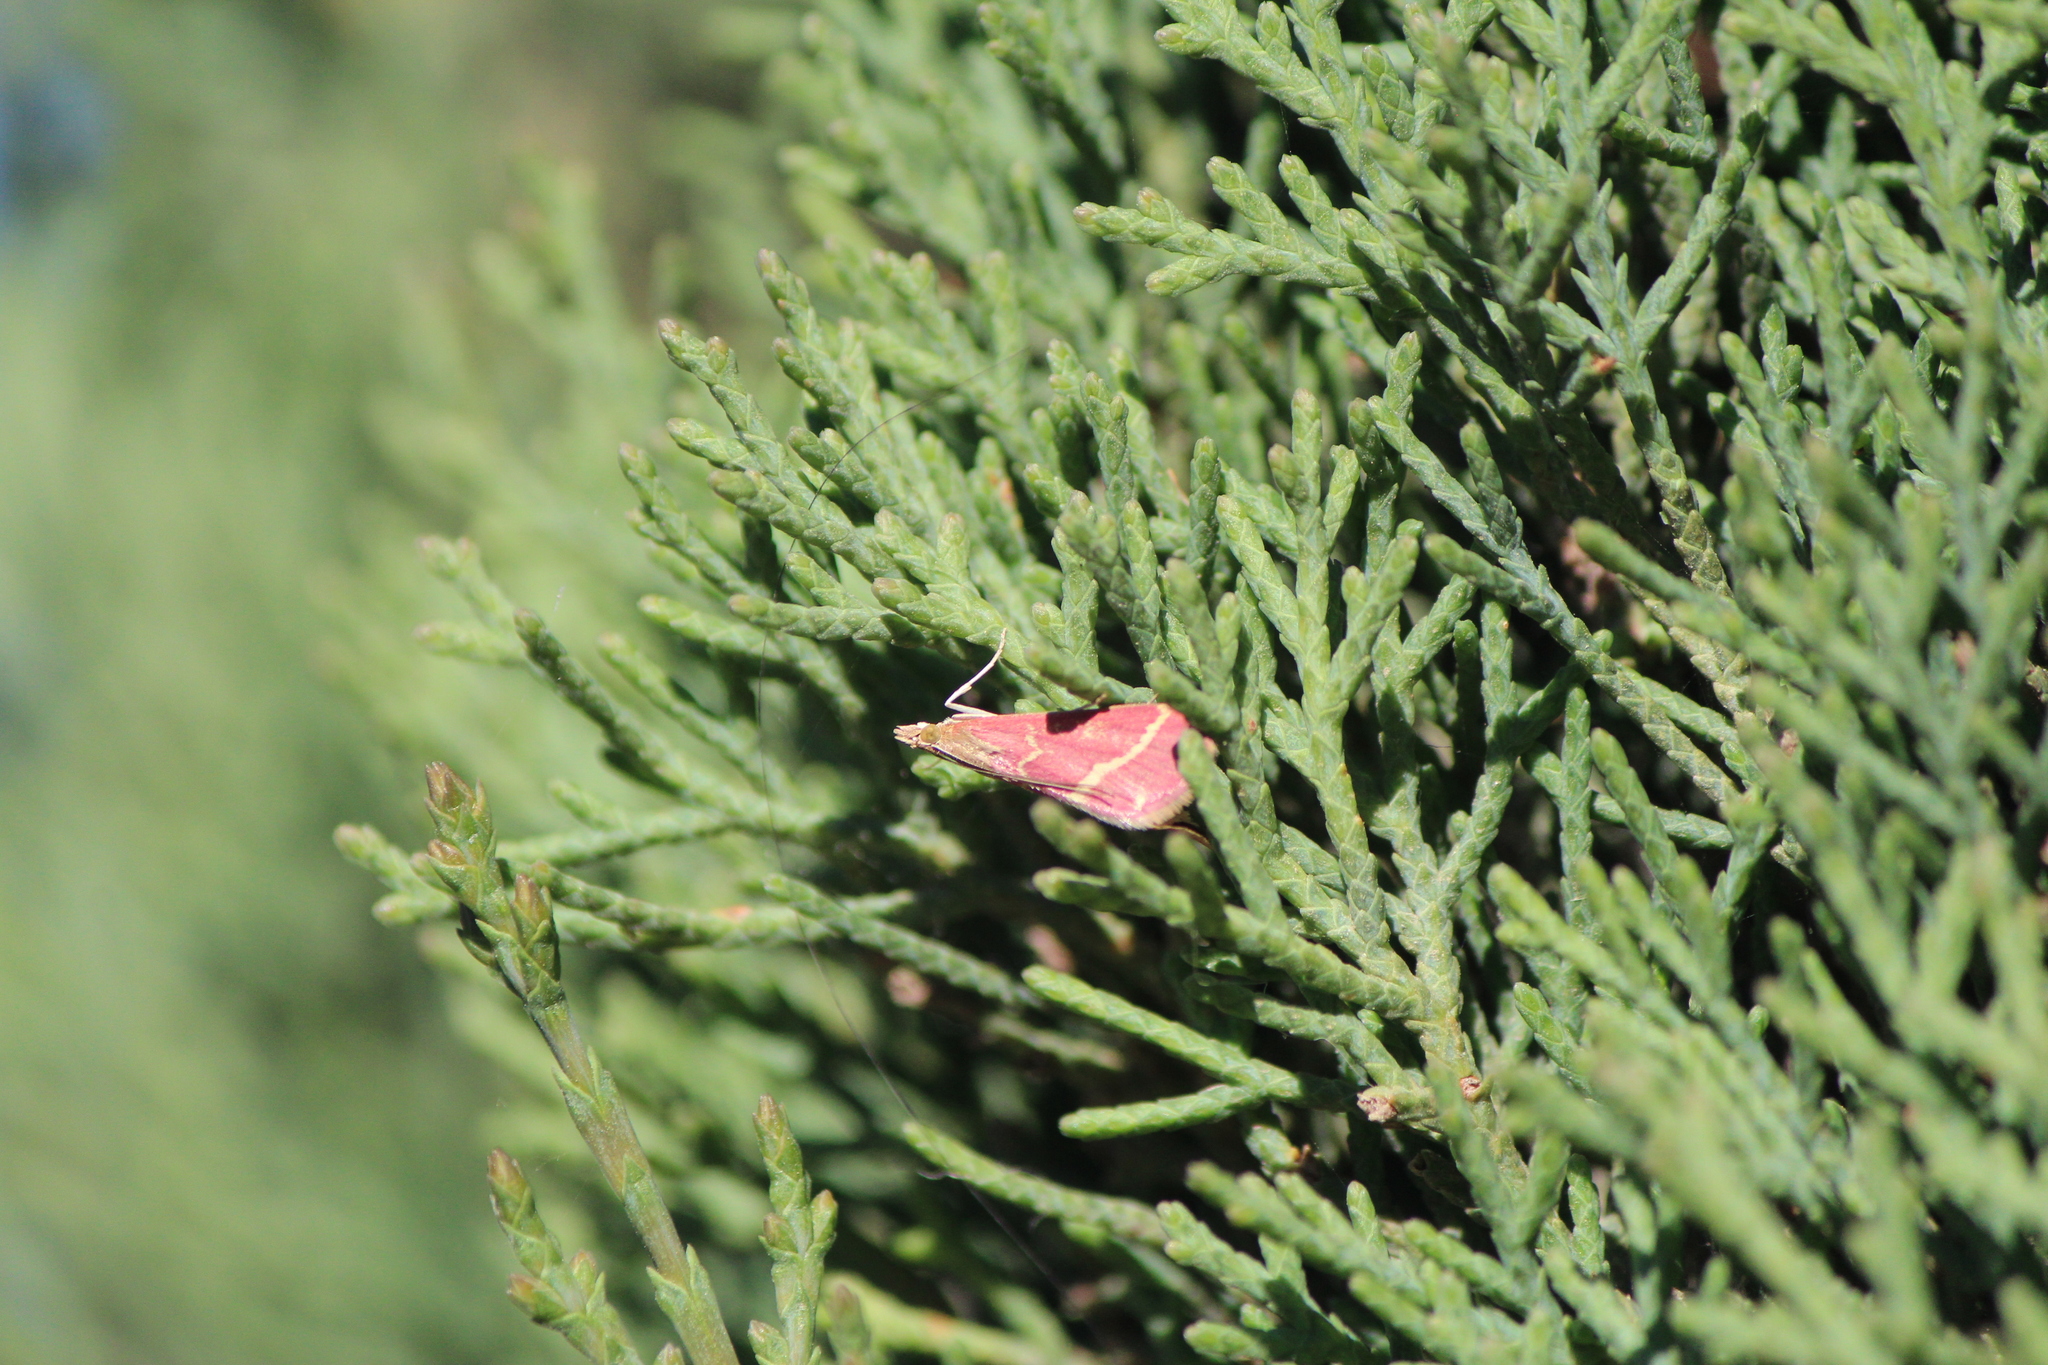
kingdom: Animalia
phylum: Arthropoda
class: Insecta
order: Lepidoptera
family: Crambidae
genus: Pyrausta
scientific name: Pyrausta volupialis
